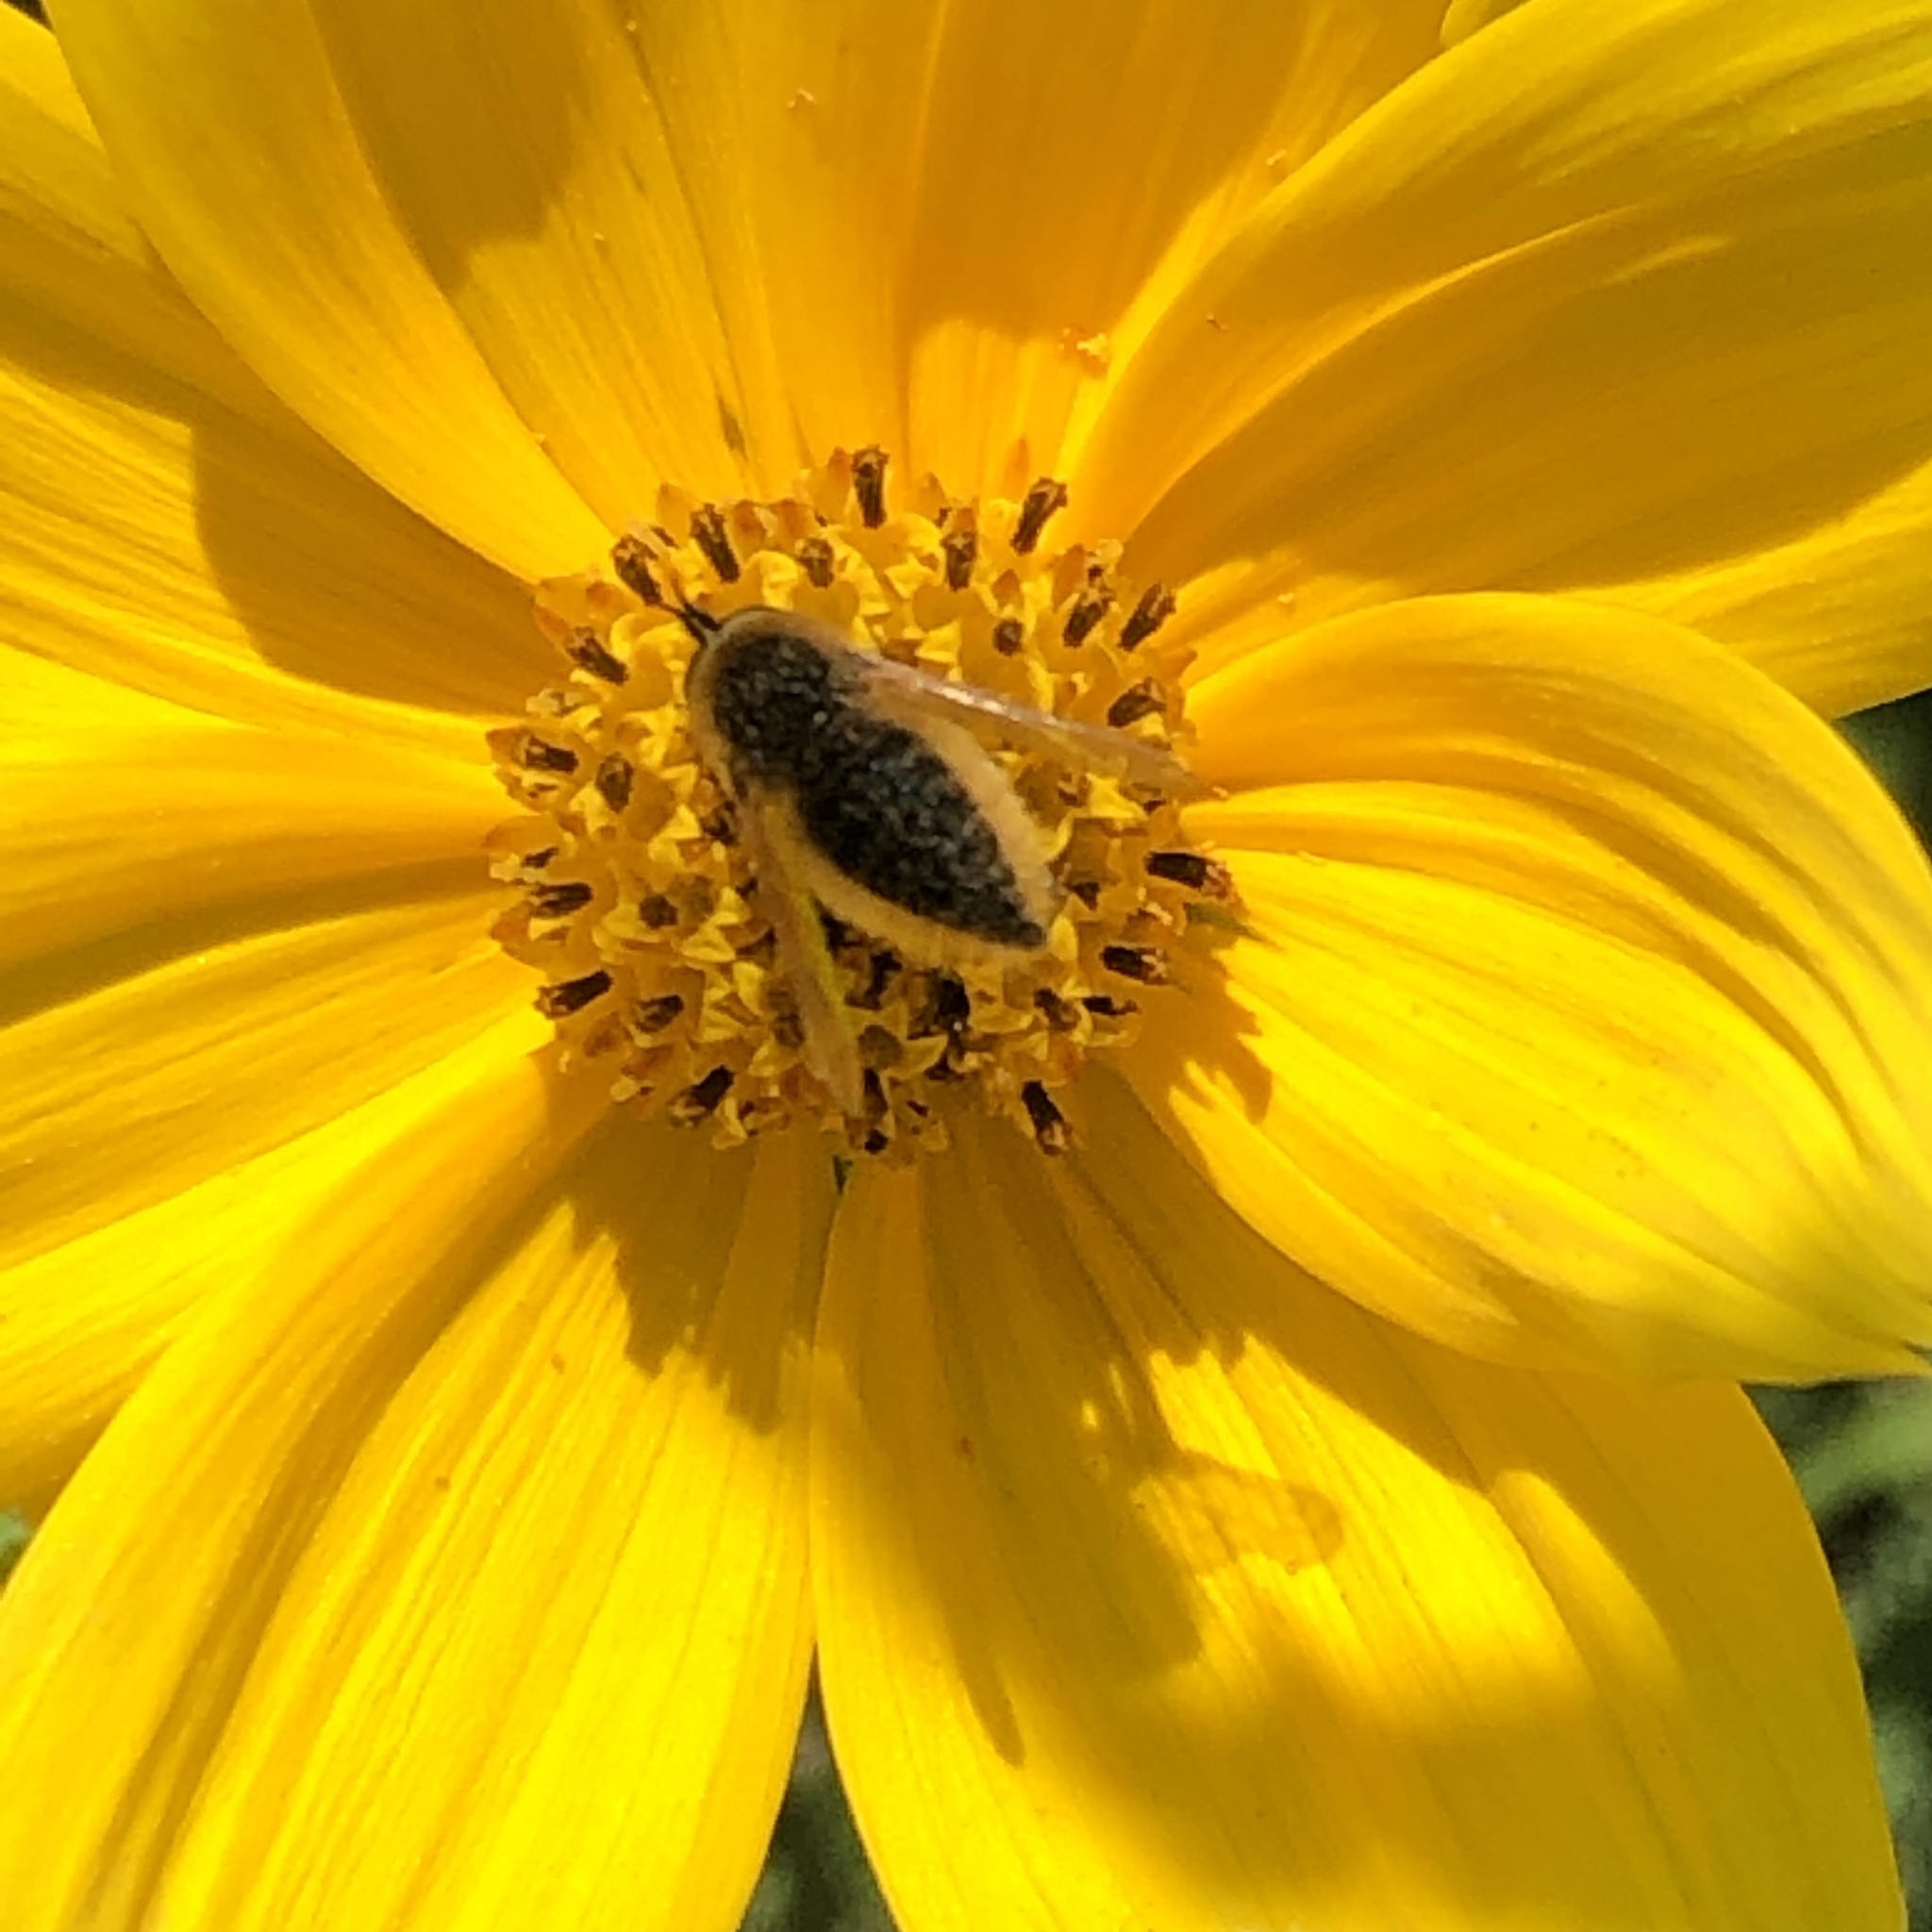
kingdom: Animalia
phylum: Arthropoda
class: Insecta
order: Diptera
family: Bombyliidae
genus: Sparnopolius
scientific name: Sparnopolius confusus
